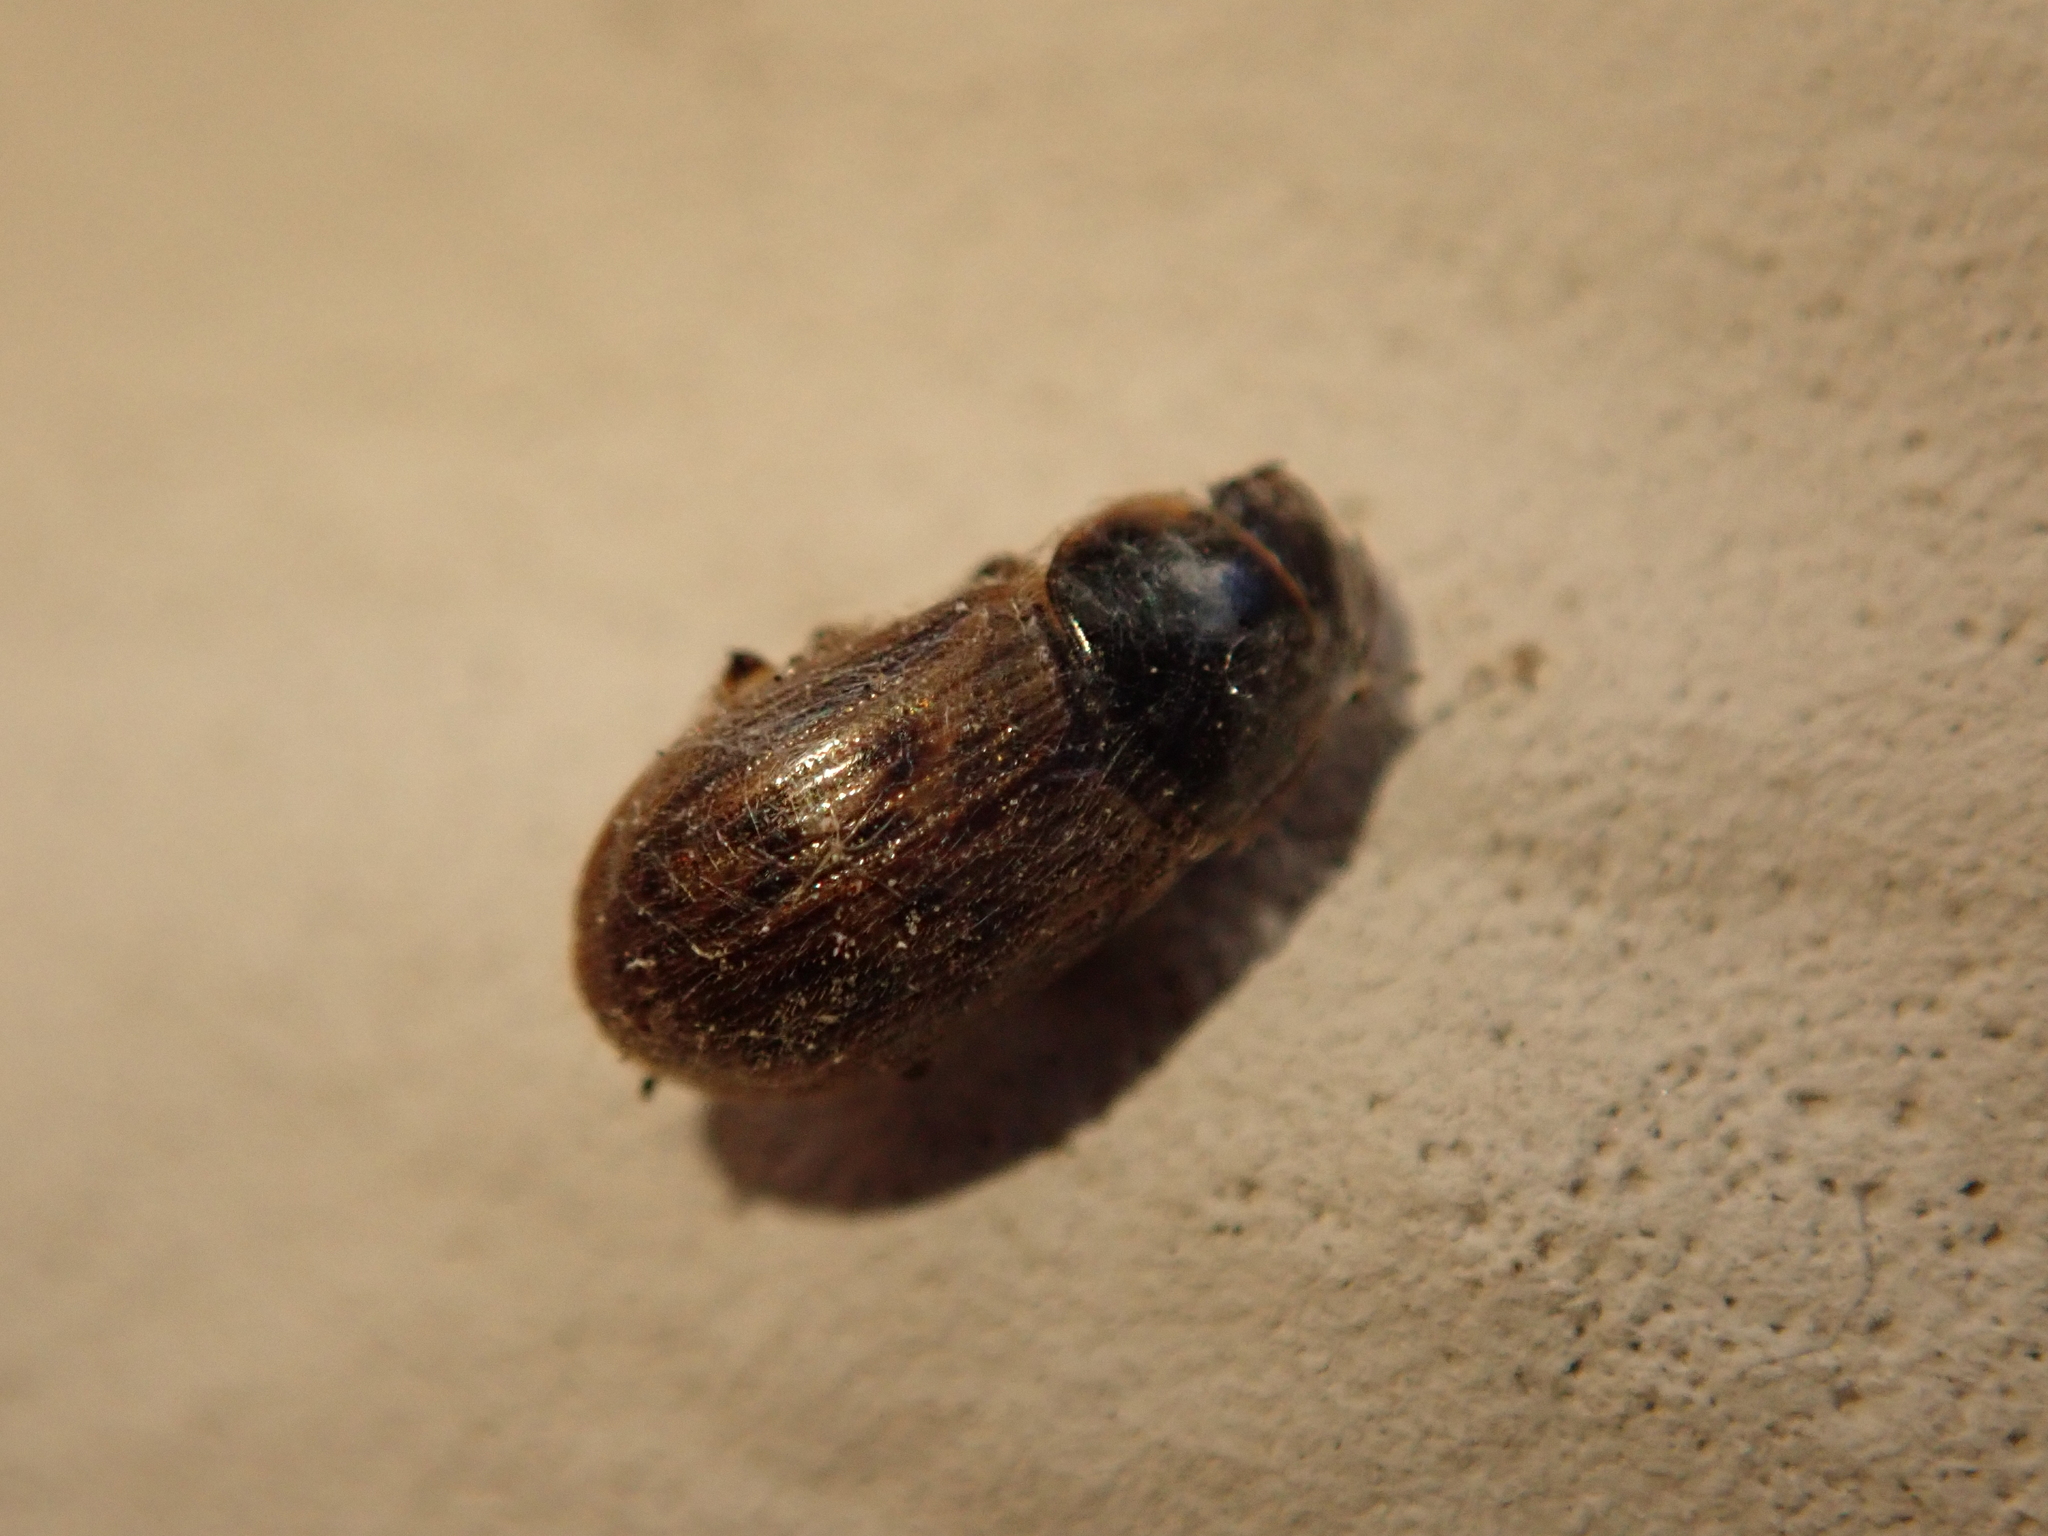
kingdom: Animalia
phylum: Arthropoda
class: Insecta
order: Coleoptera
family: Scarabaeidae
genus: Nimbus
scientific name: Nimbus contaminatus
